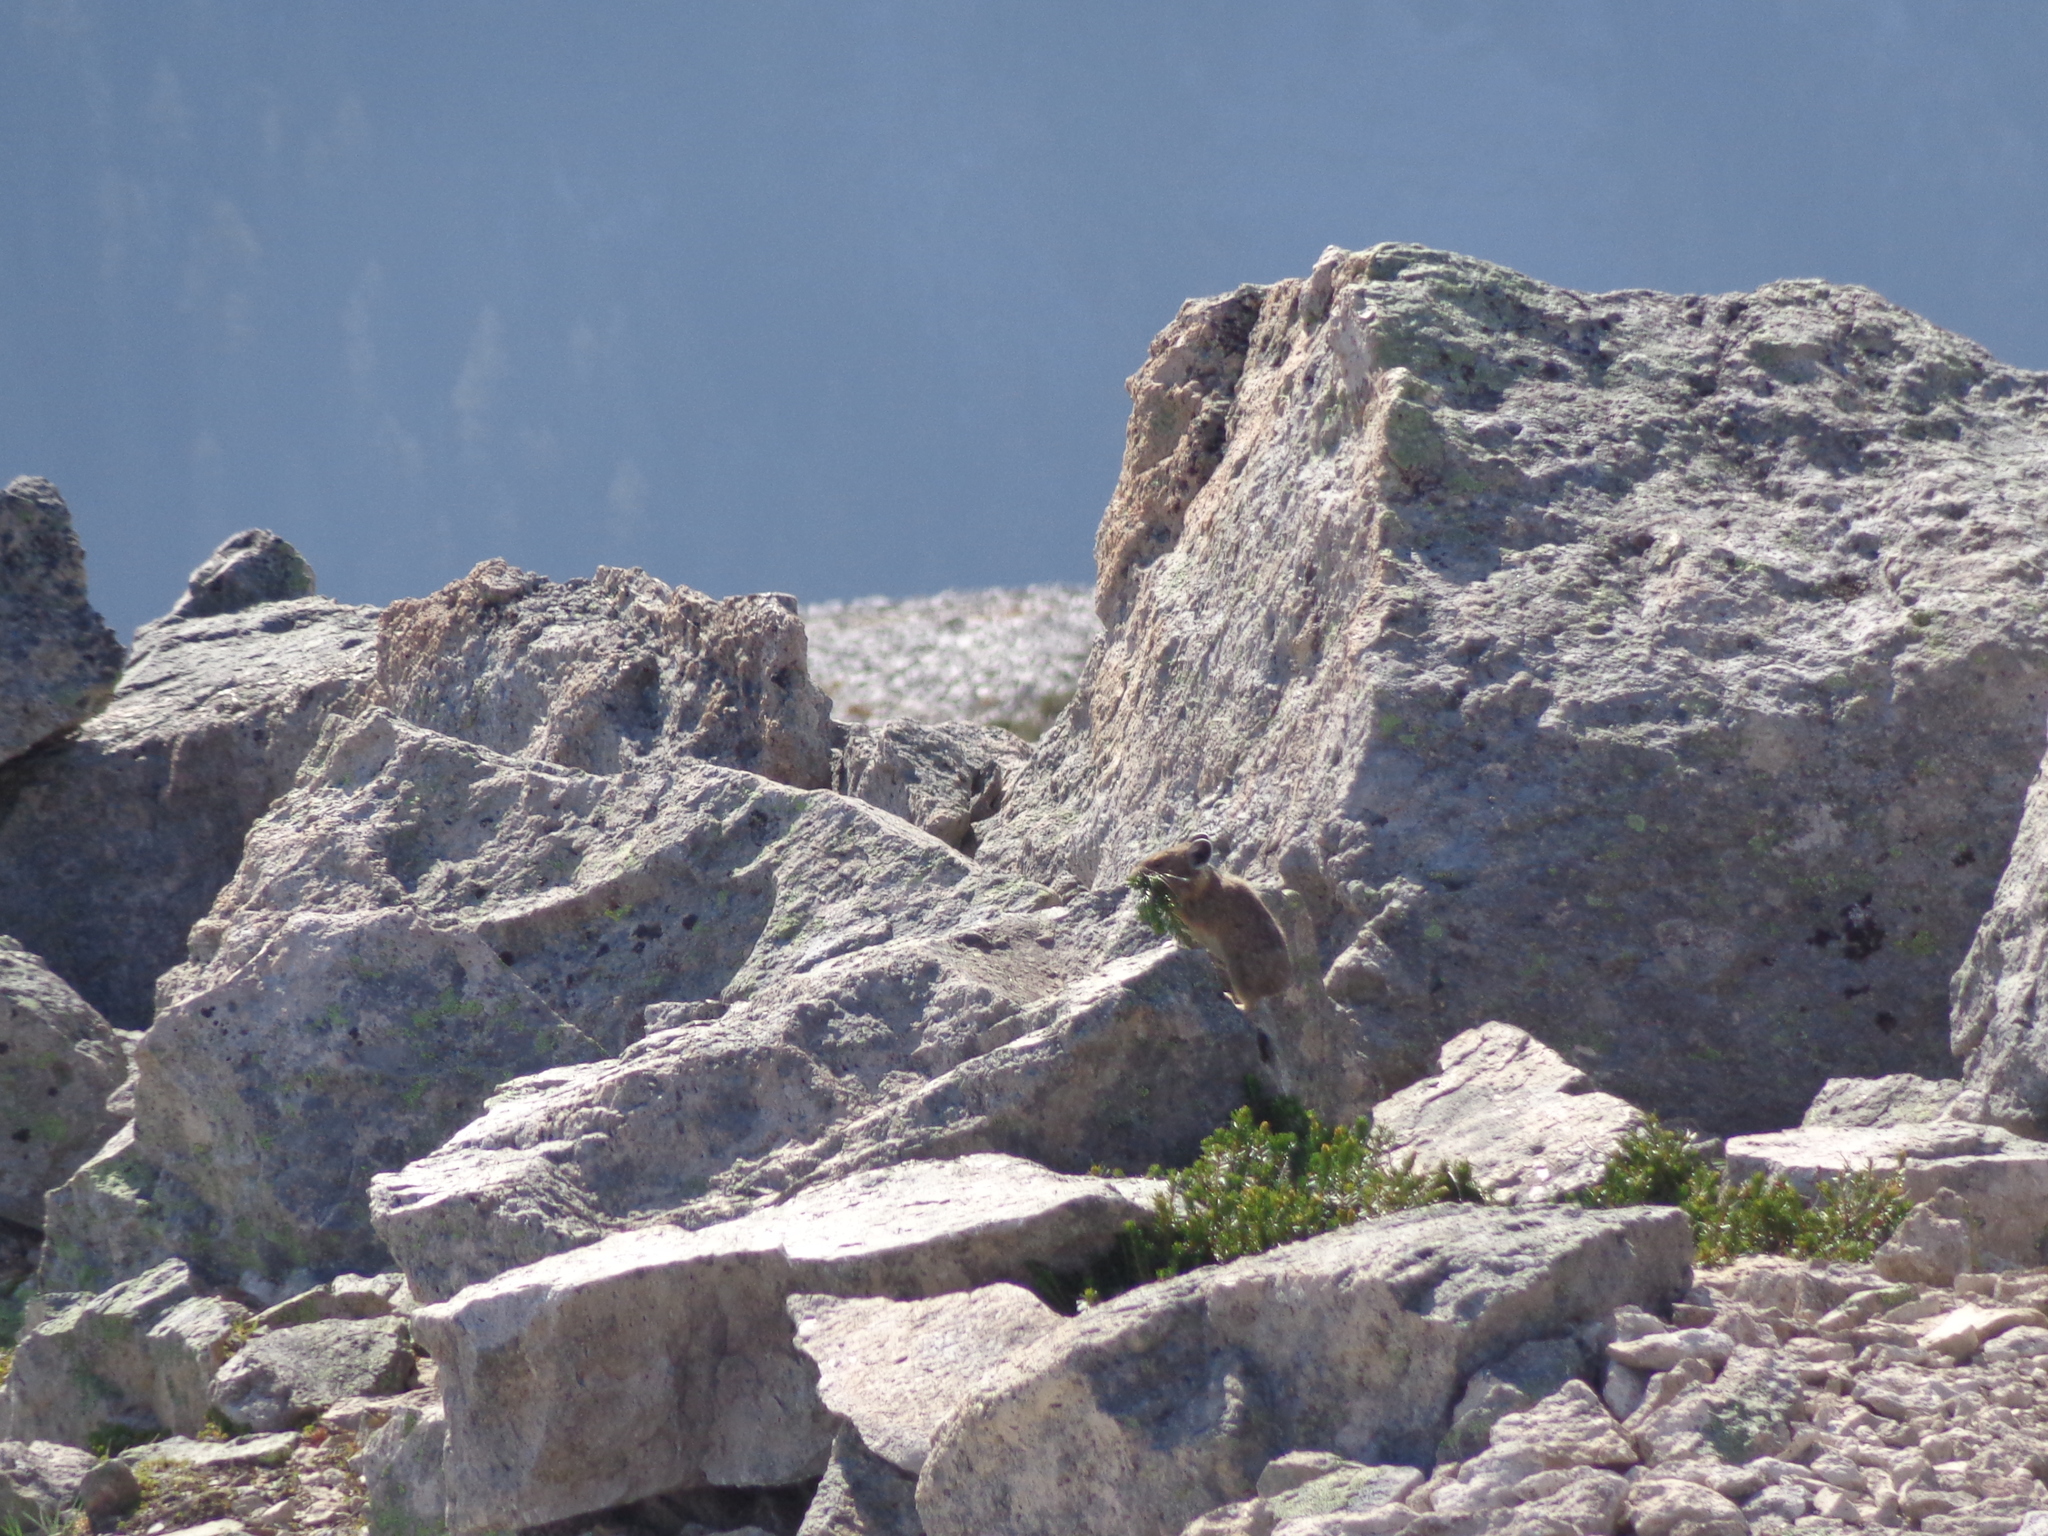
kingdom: Animalia
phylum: Chordata
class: Mammalia
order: Lagomorpha
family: Ochotonidae
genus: Ochotona
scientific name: Ochotona princeps
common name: American pika
